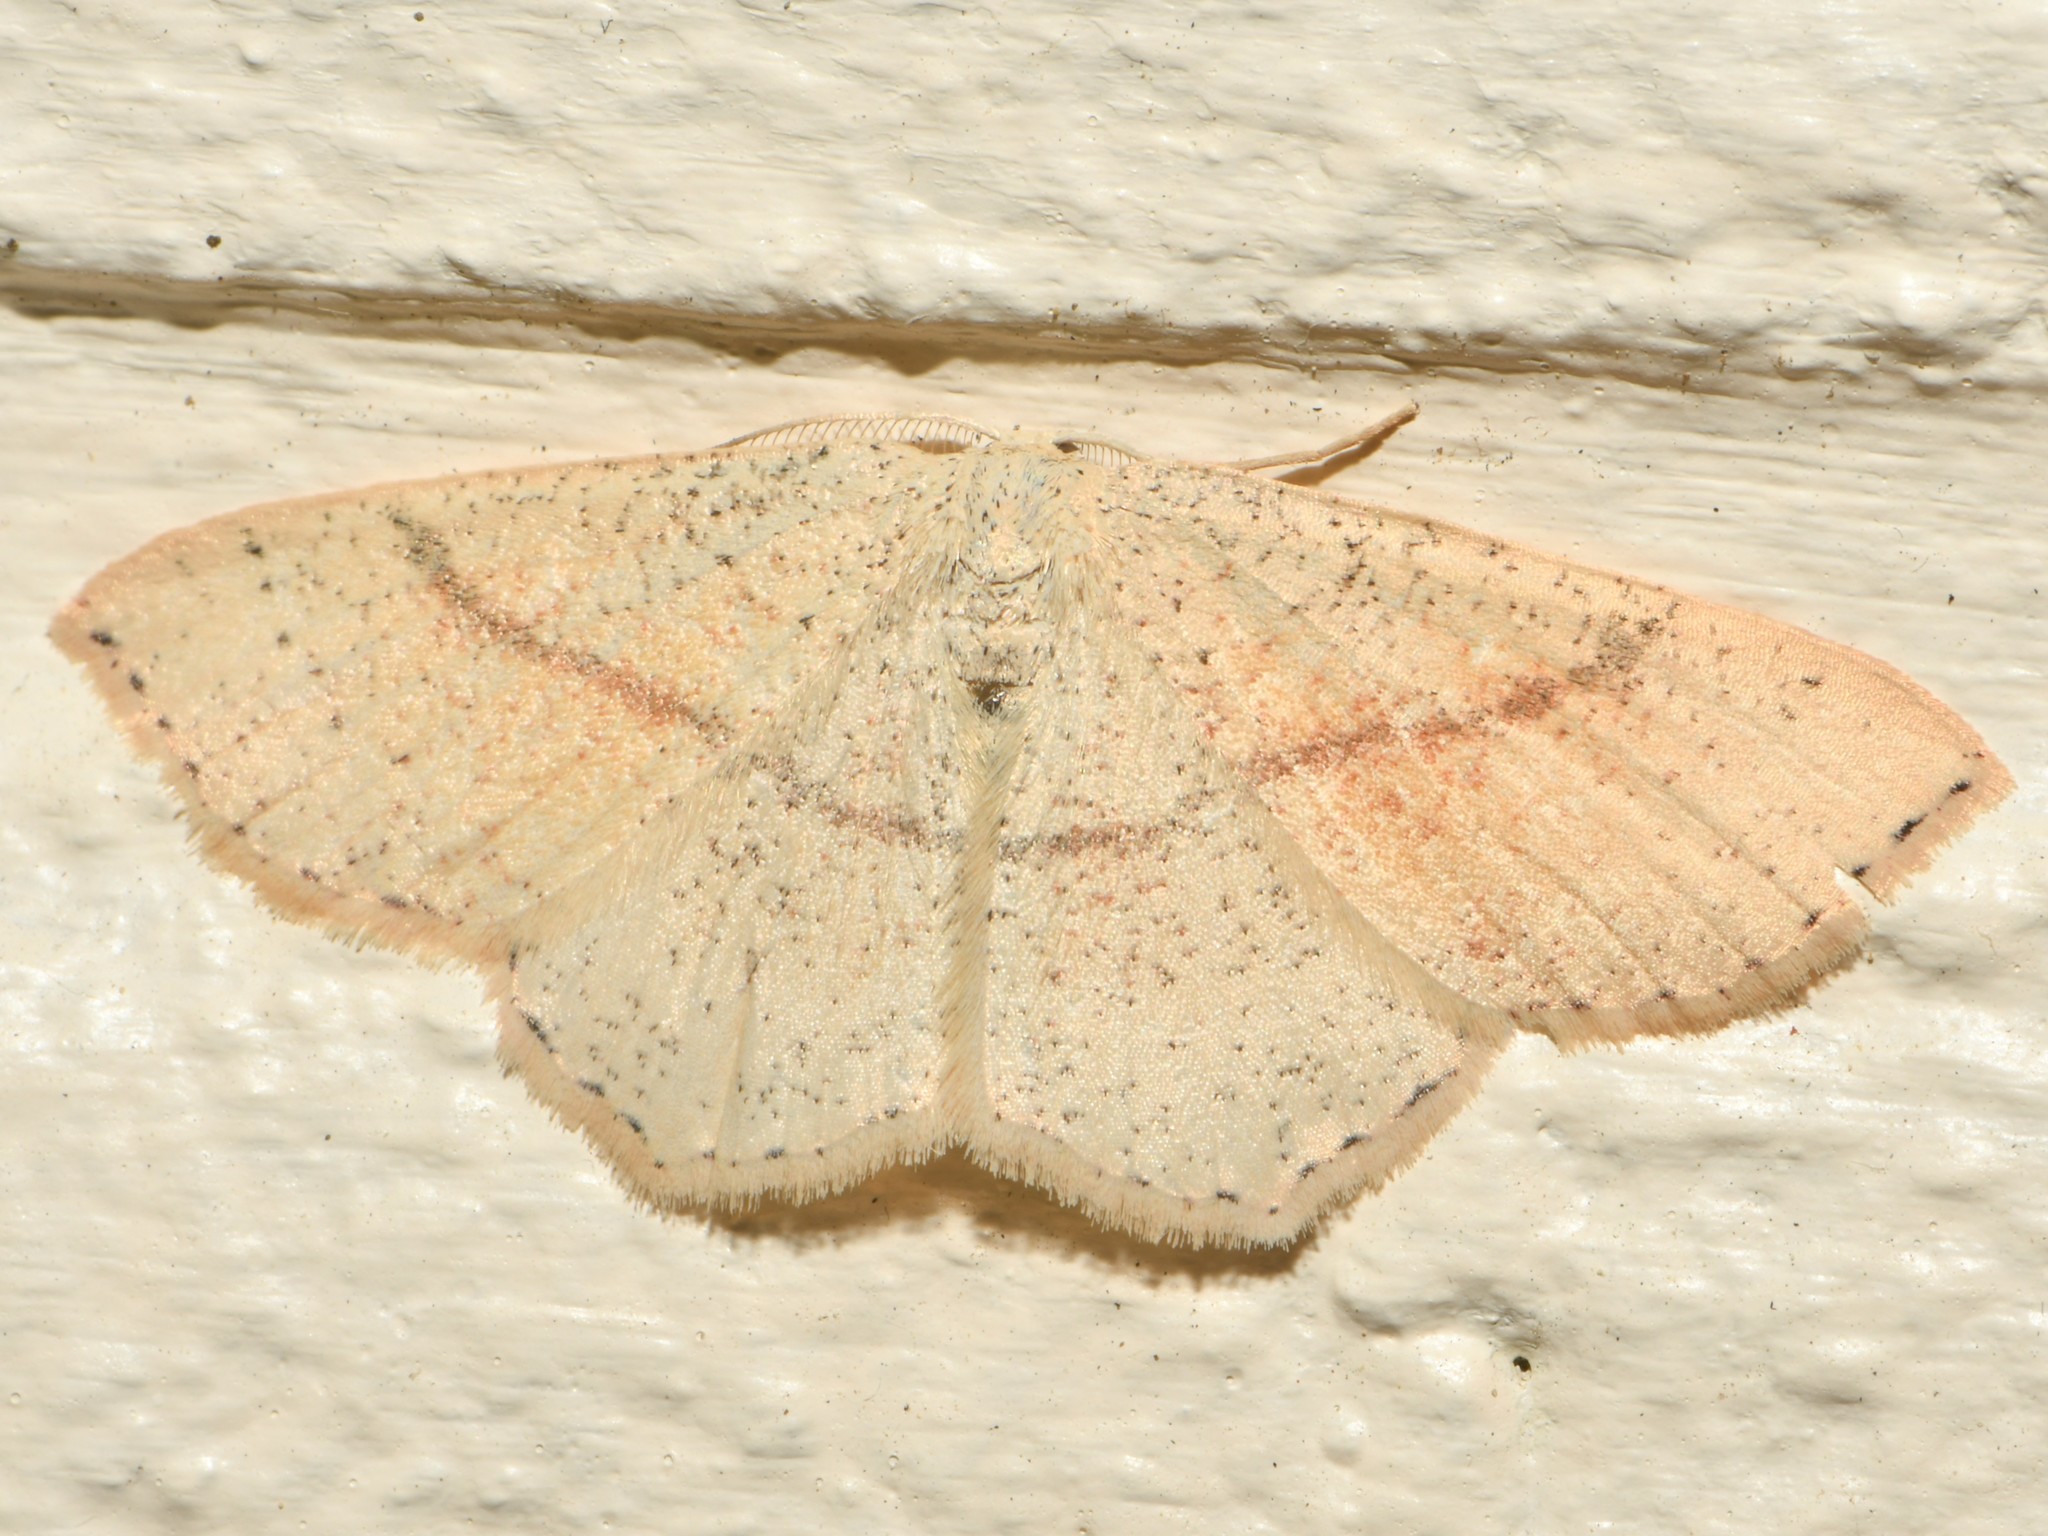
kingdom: Animalia
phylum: Arthropoda
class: Insecta
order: Lepidoptera
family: Geometridae
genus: Cyclophora
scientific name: Cyclophora punctaria
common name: Maiden's blush
